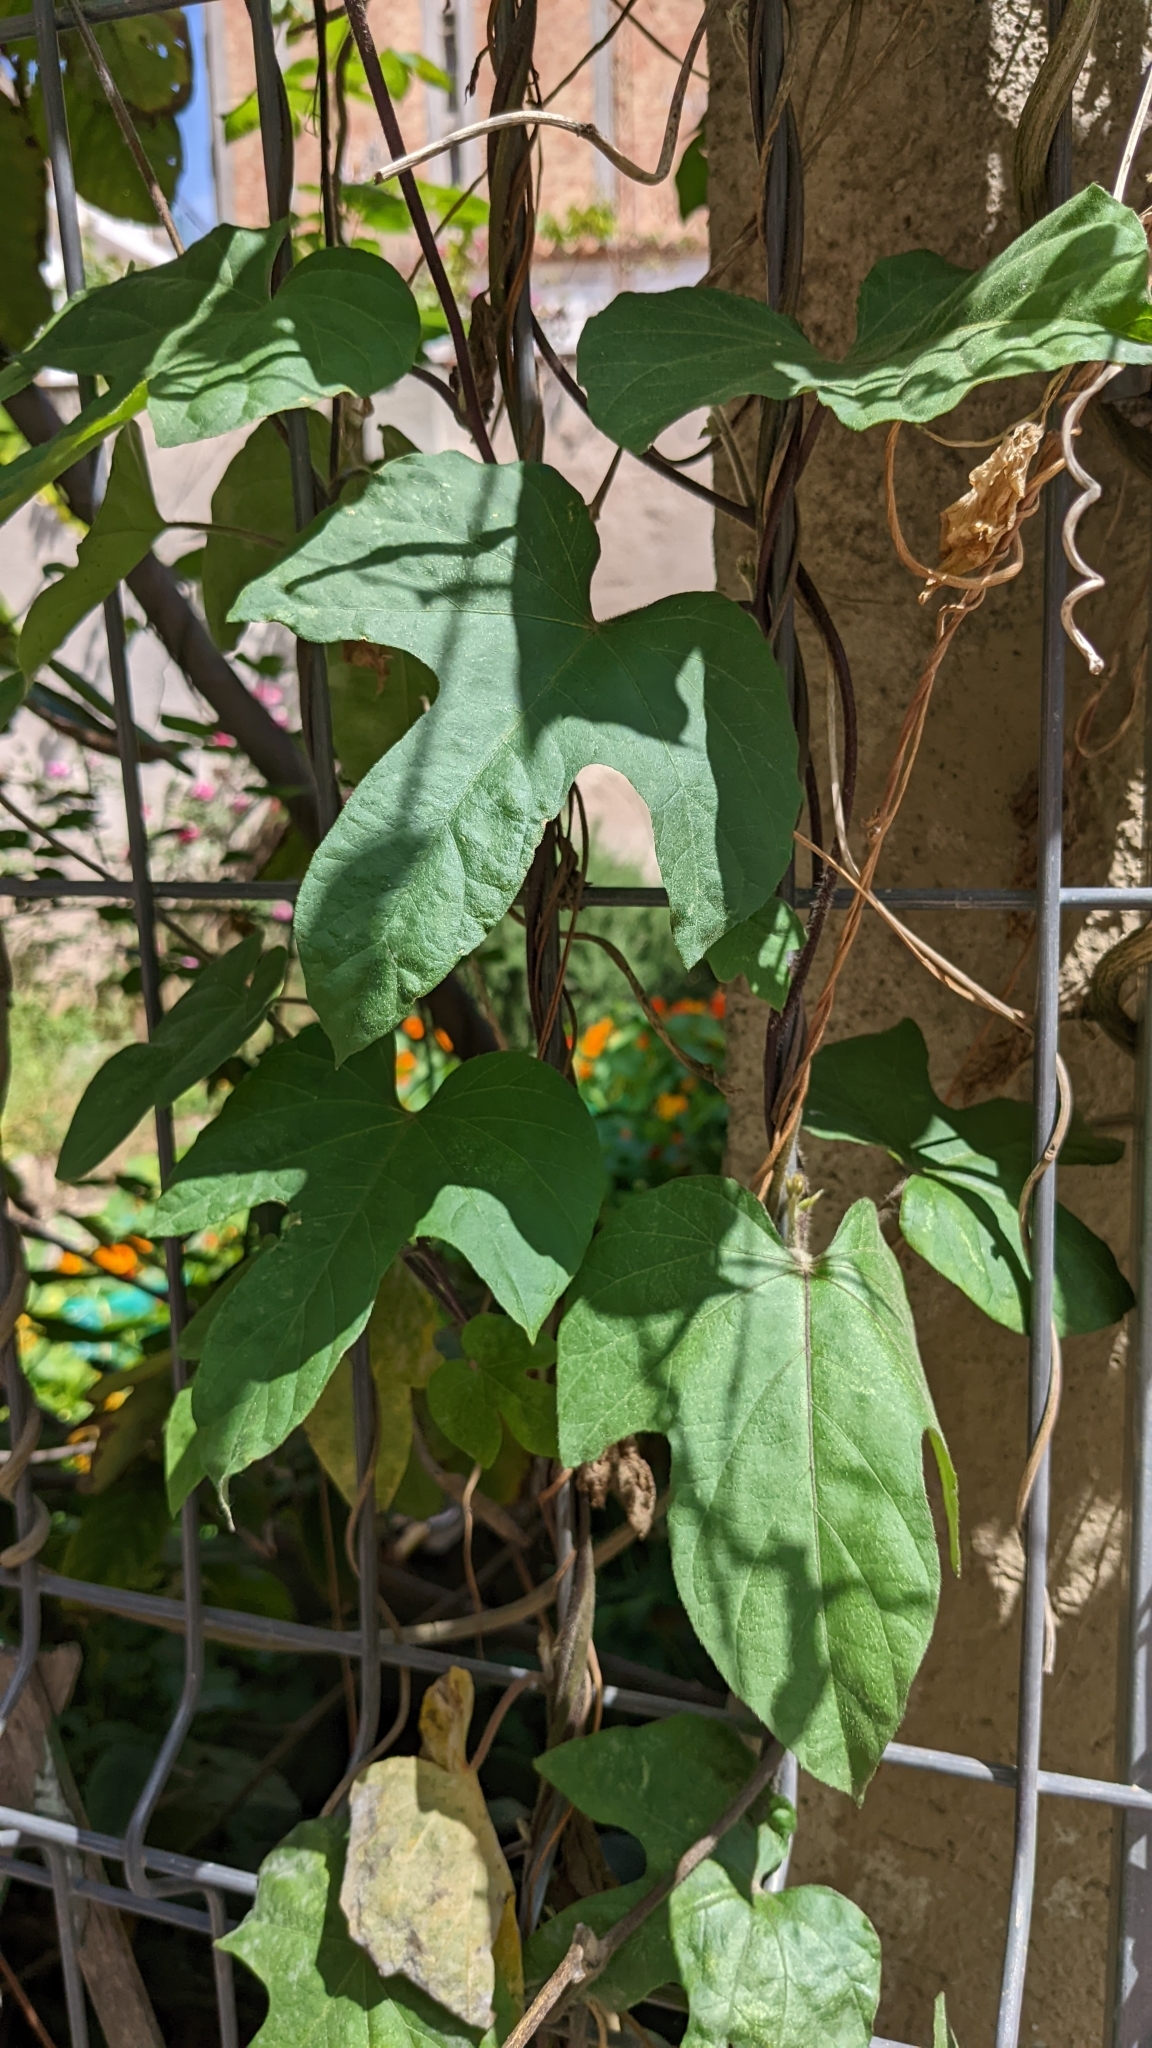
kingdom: Plantae
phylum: Tracheophyta
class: Magnoliopsida
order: Solanales
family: Convolvulaceae
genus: Ipomoea
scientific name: Ipomoea indica
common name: Blue dawnflower
